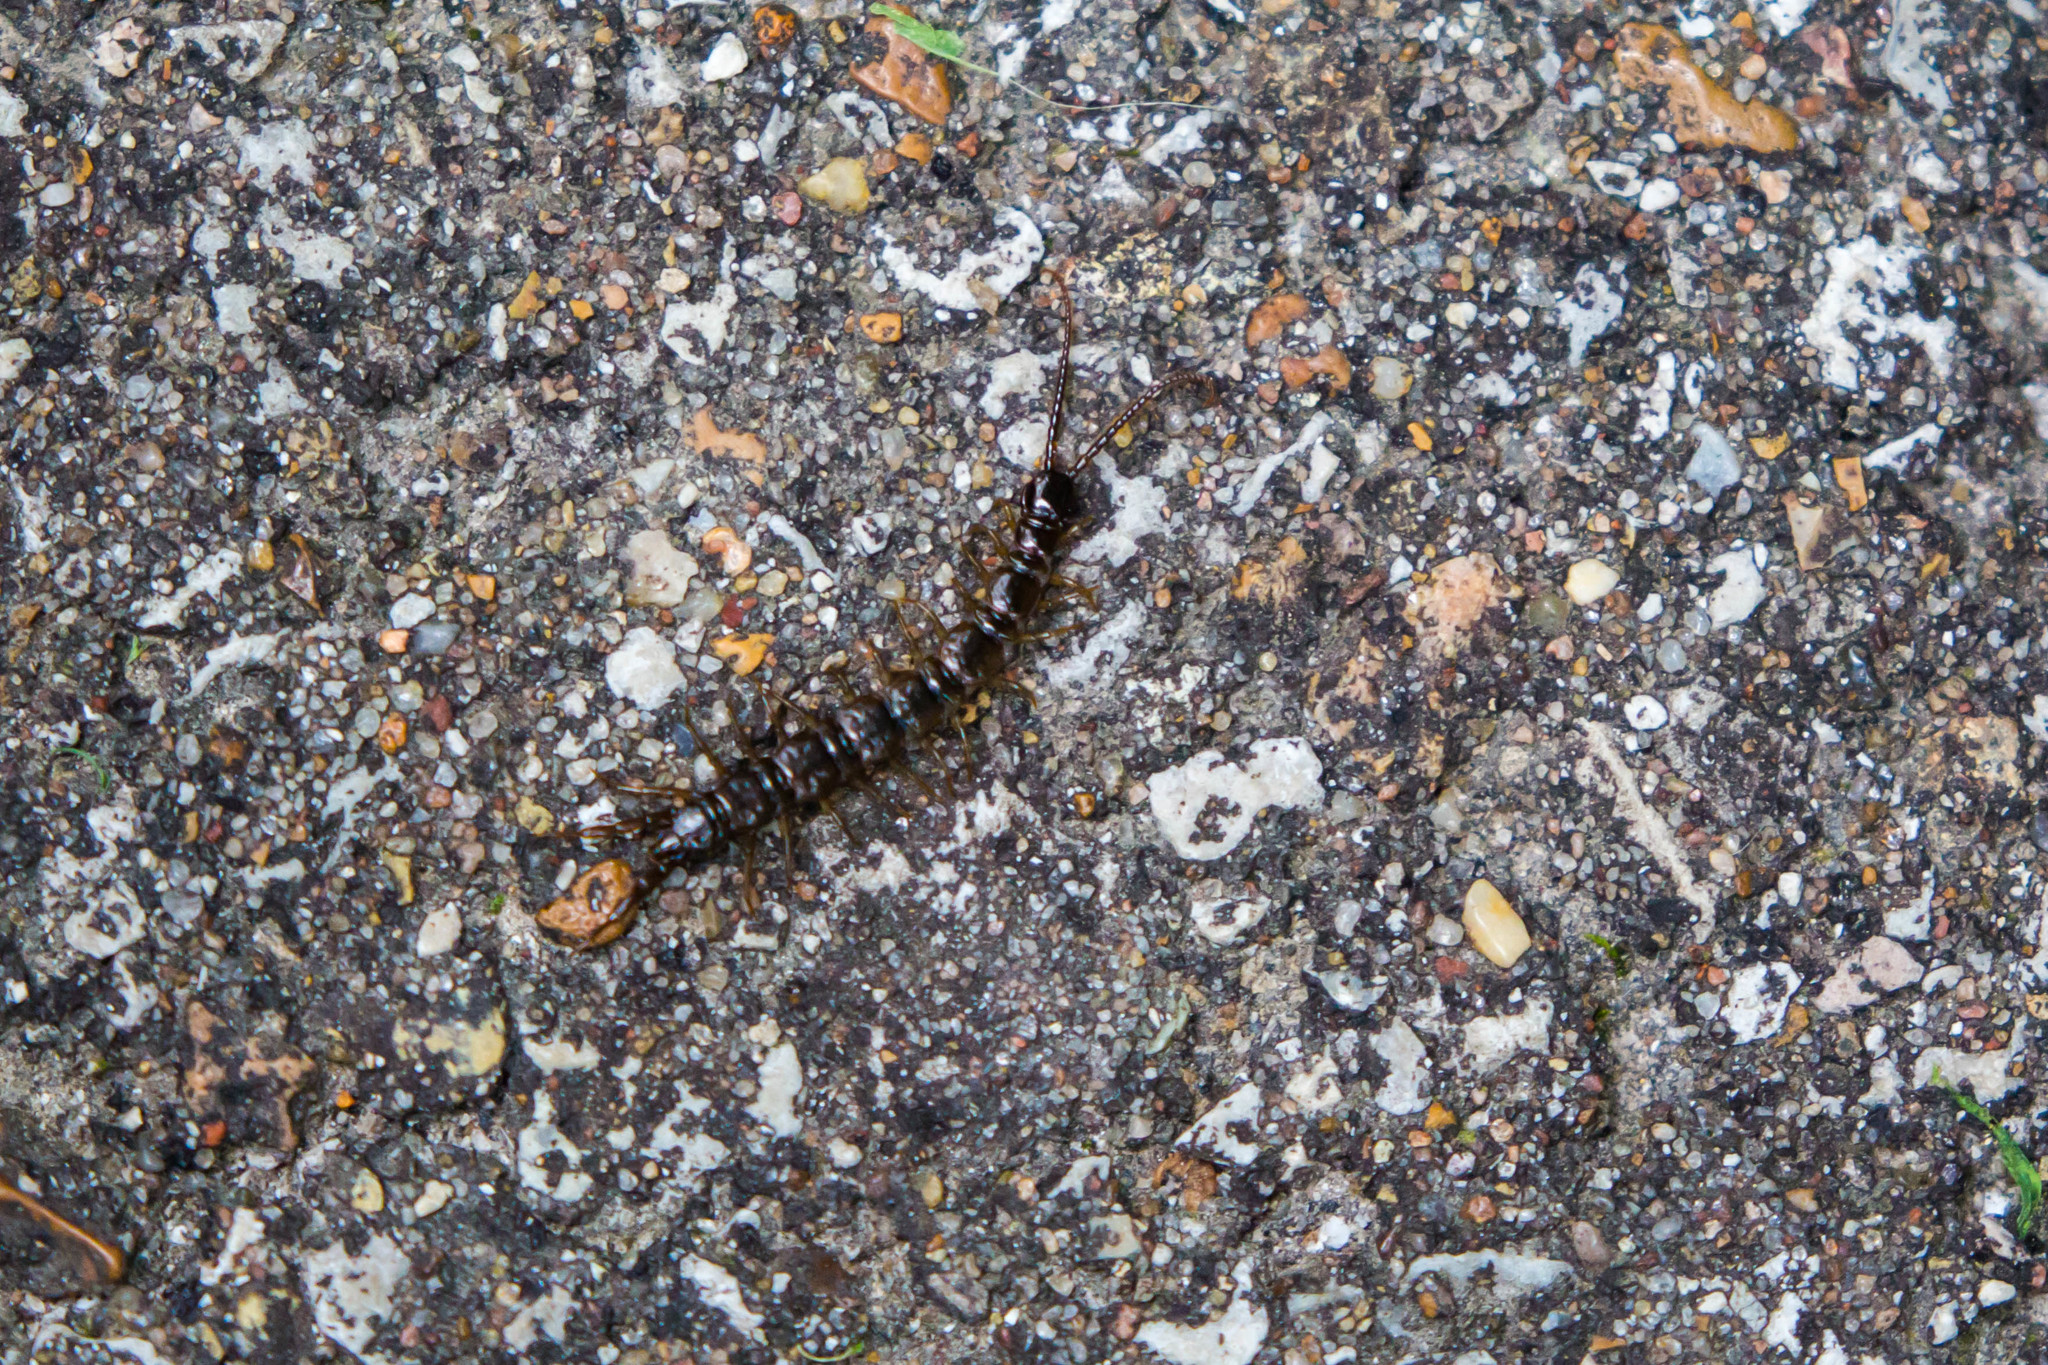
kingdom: Animalia
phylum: Arthropoda
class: Diplopoda
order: Polydesmida
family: Paradoxosomatidae
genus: Oxidus
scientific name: Oxidus gracilis
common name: Greenhouse millipede
